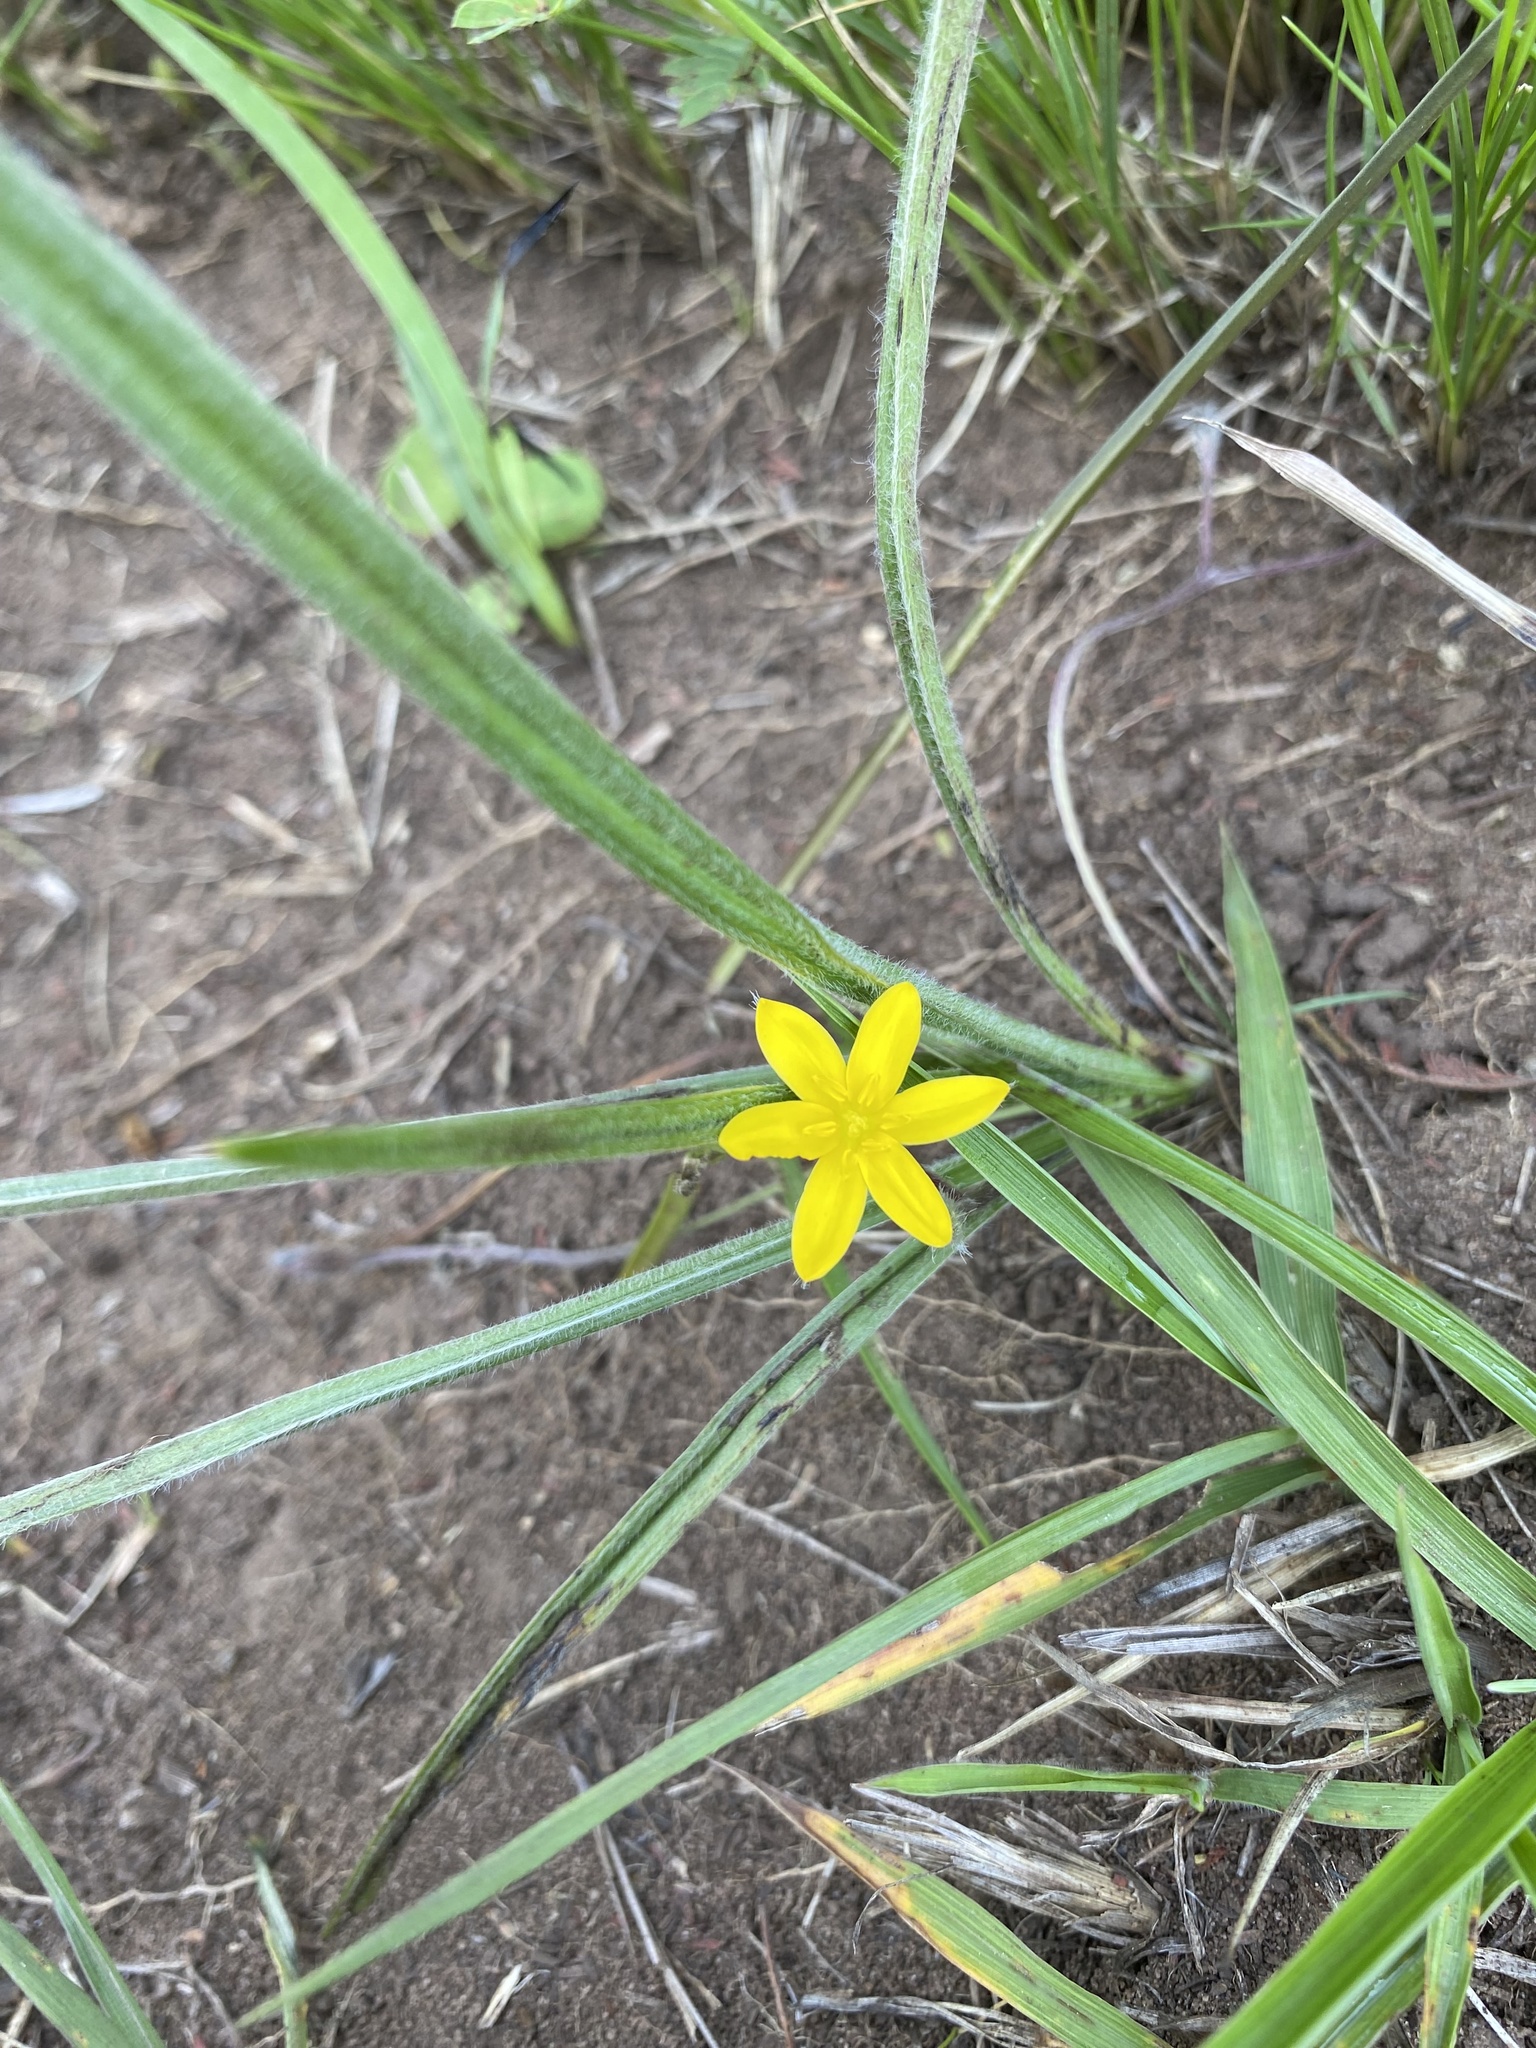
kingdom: Plantae
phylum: Tracheophyta
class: Liliopsida
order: Asparagales
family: Hypoxidaceae
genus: Hypoxis
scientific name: Hypoxis acuminata
